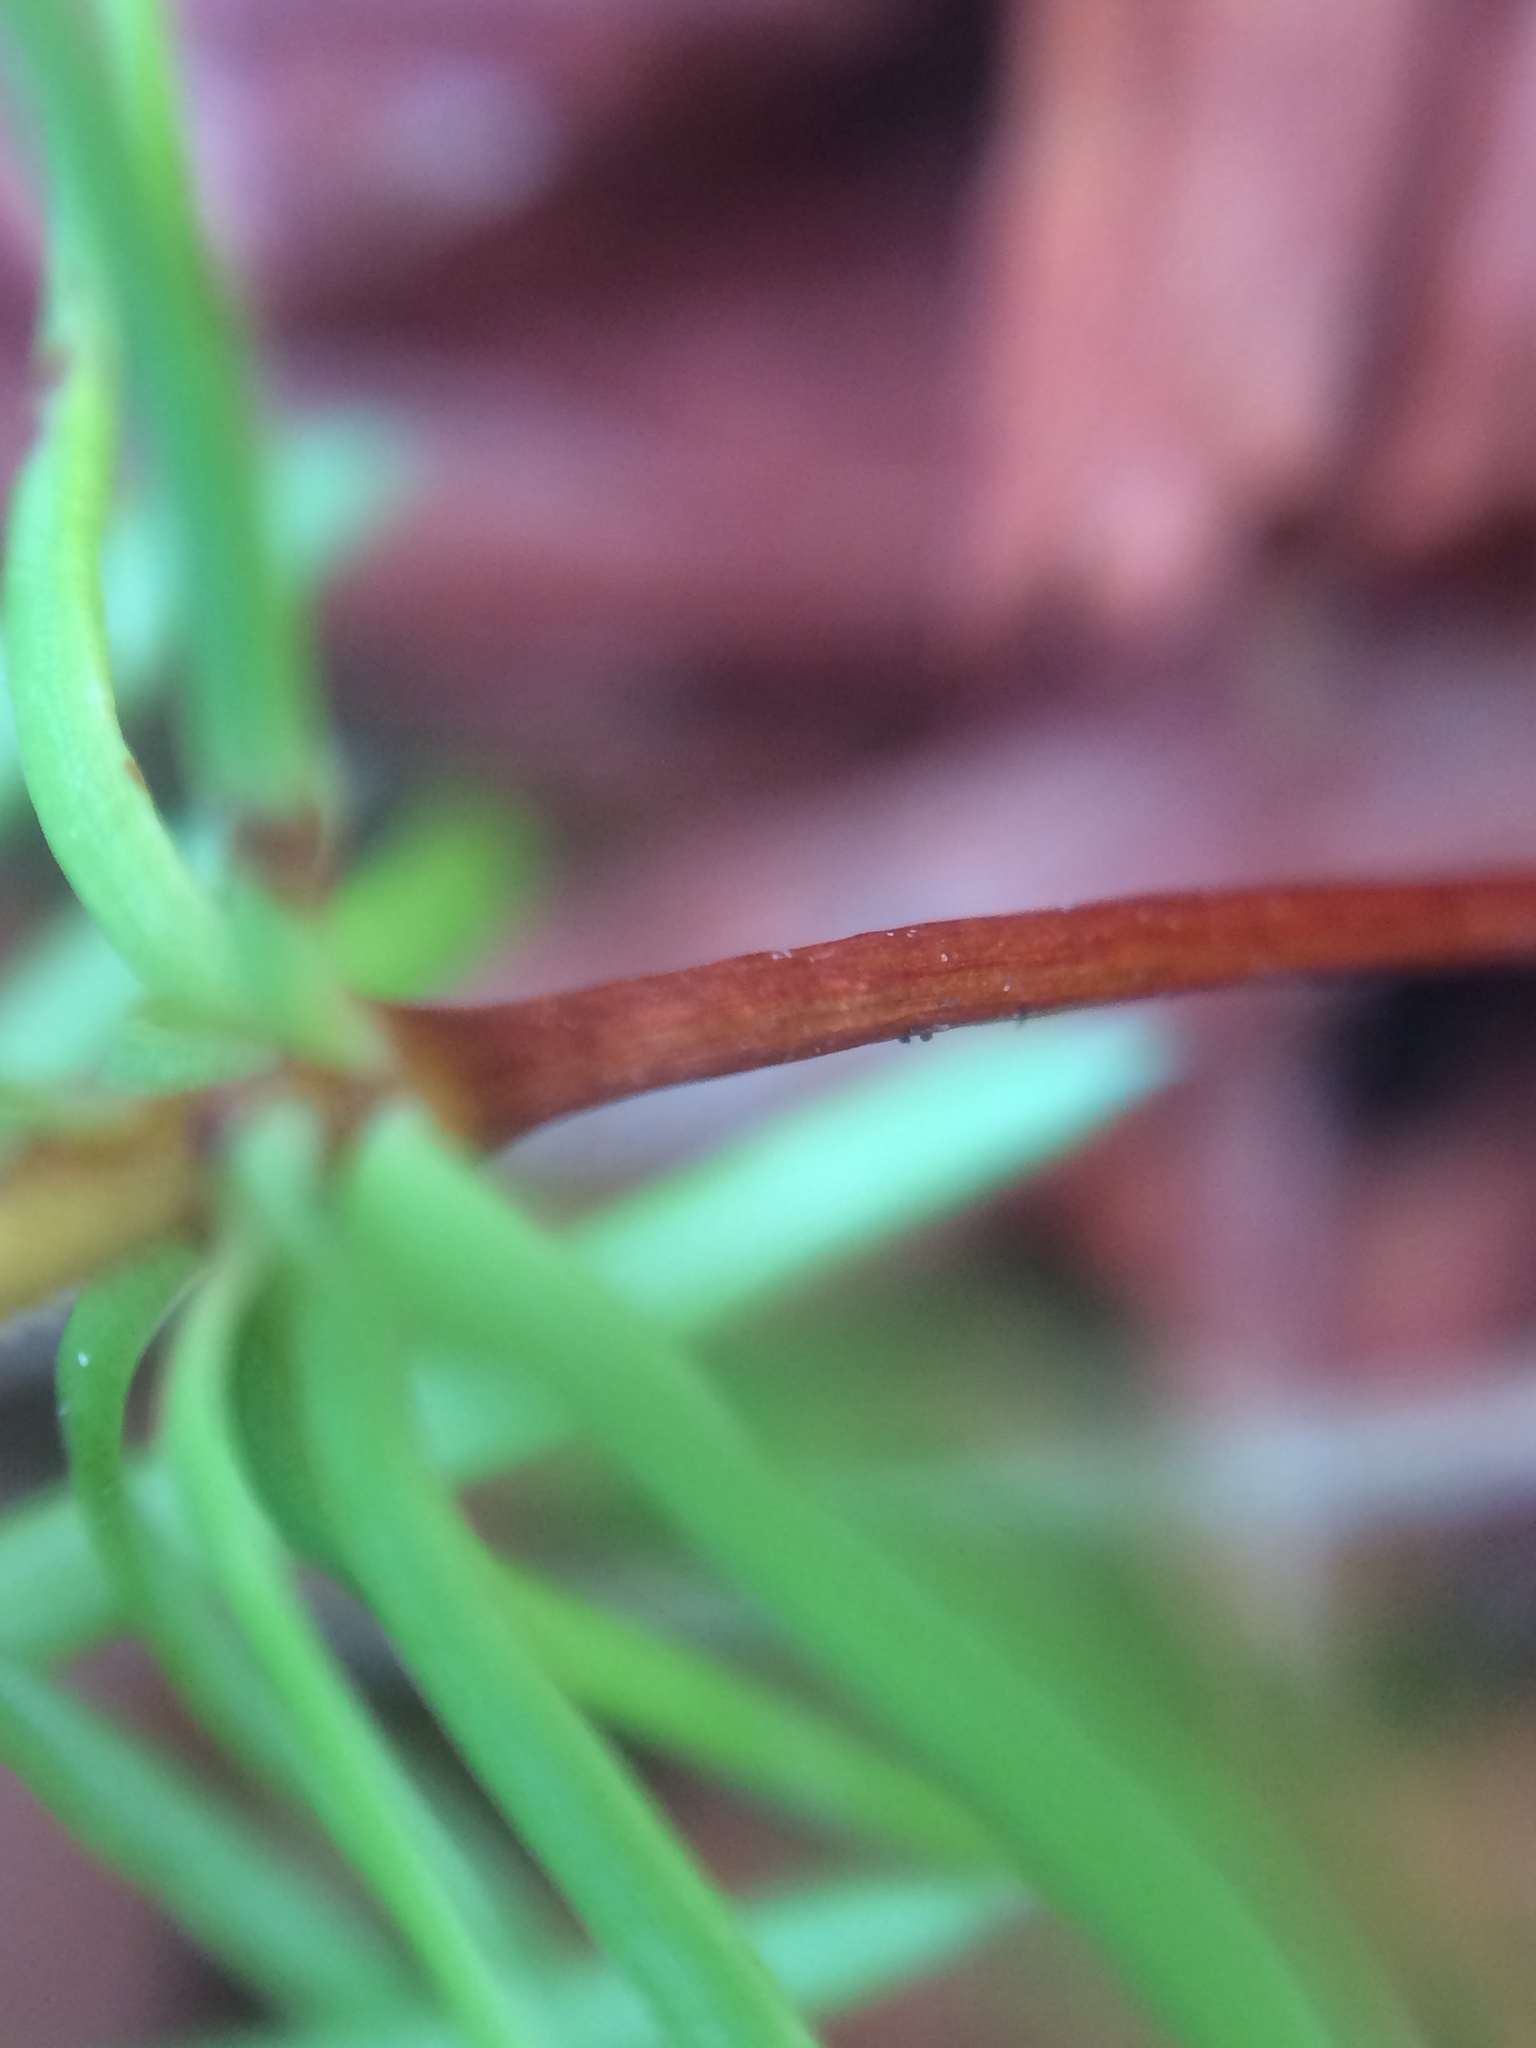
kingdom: Plantae
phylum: Tracheophyta
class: Pinopsida
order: Pinales
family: Pinaceae
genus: Pseudotsuga
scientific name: Pseudotsuga menziesii
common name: Douglas fir
